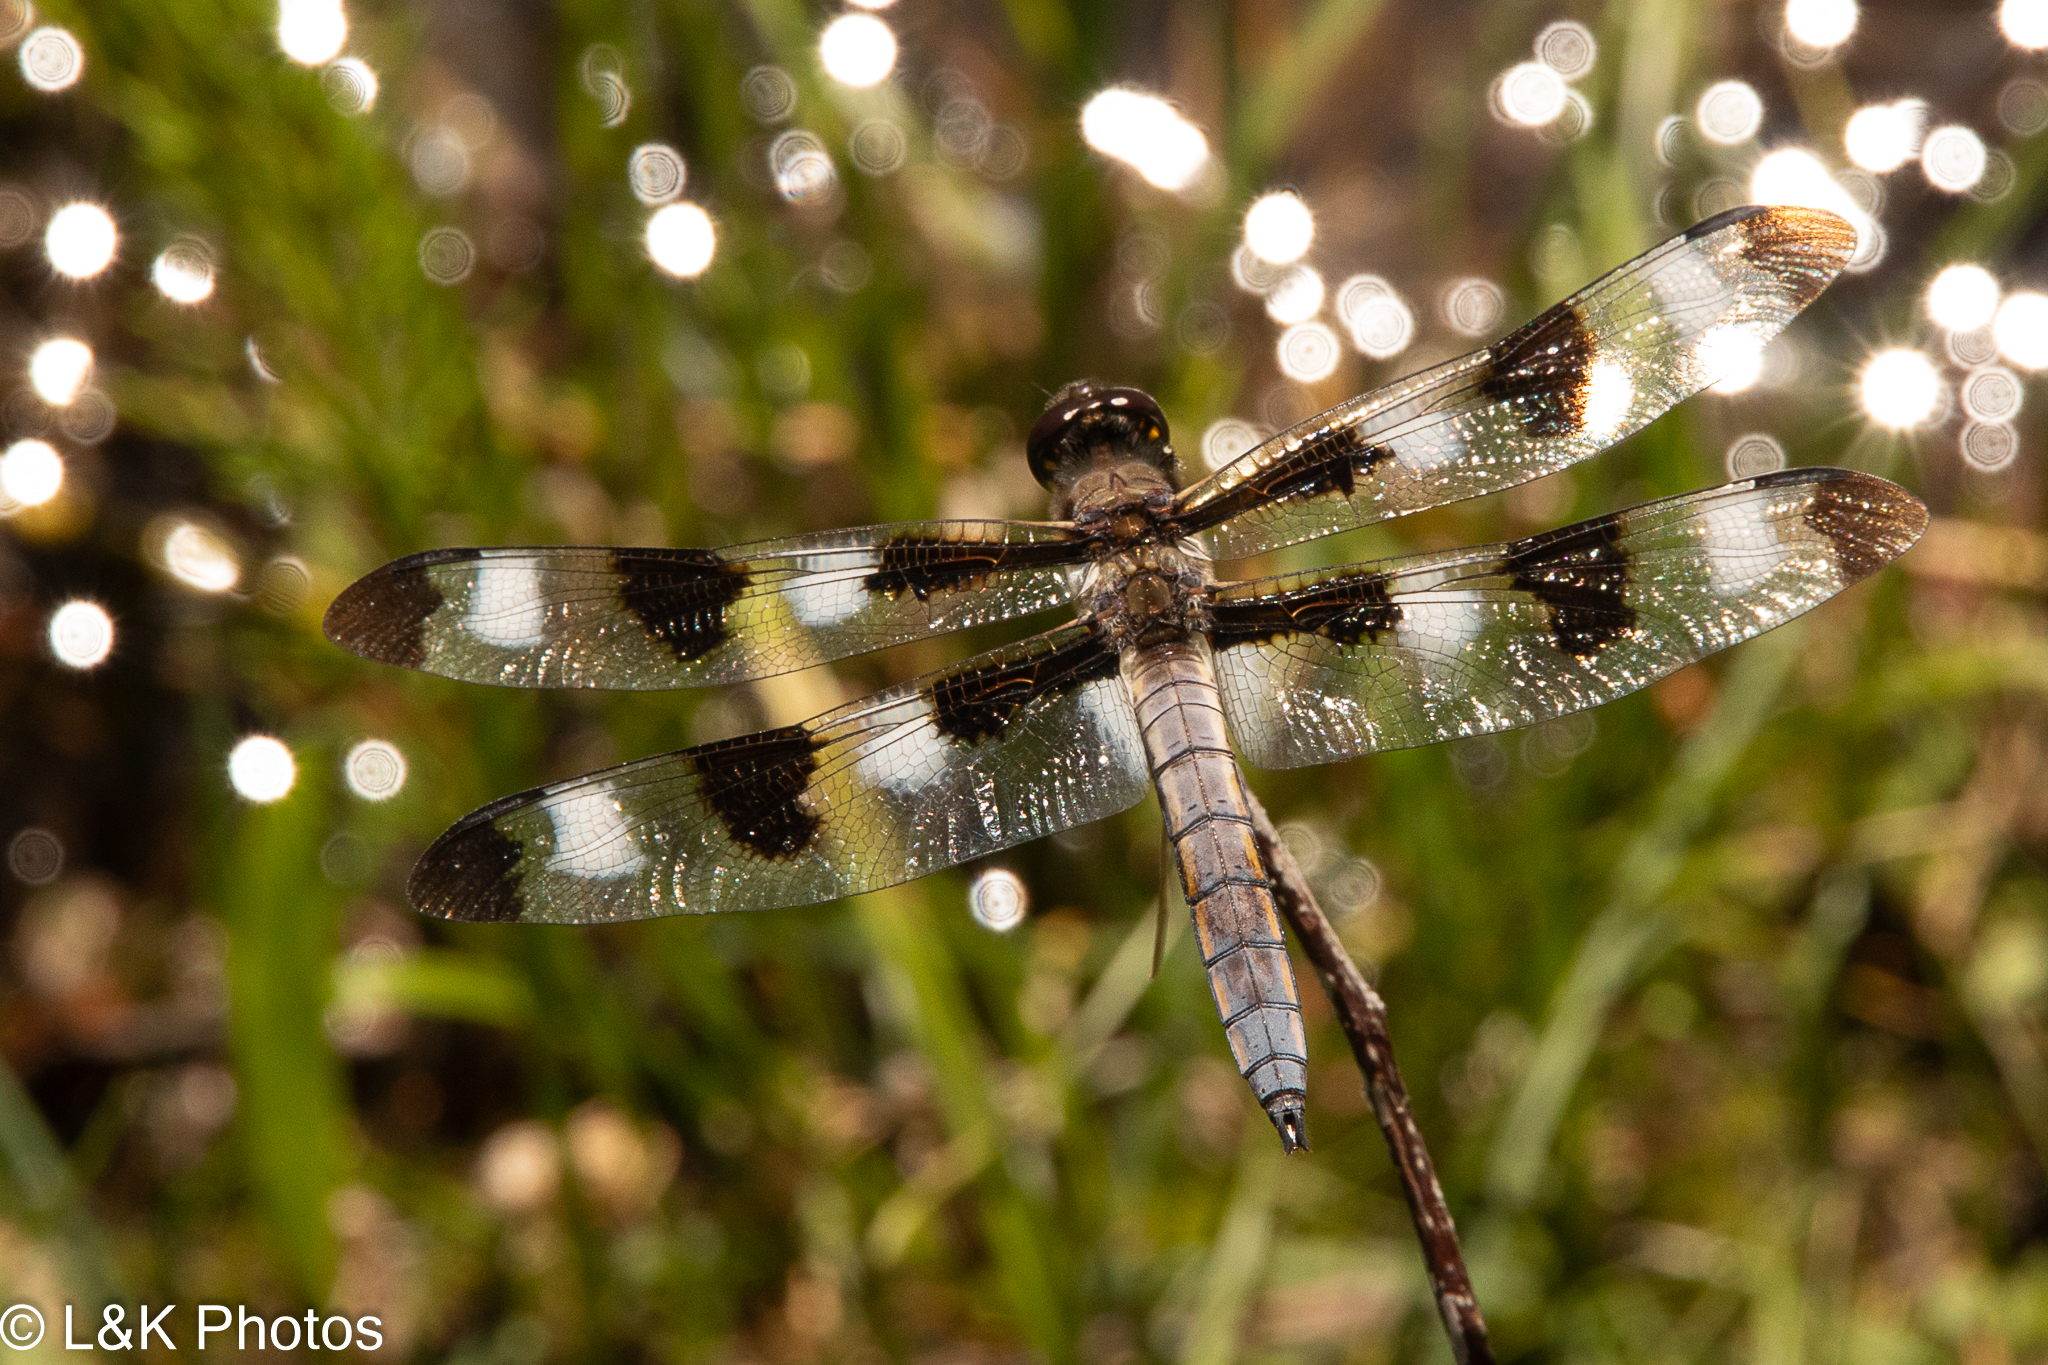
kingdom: Animalia
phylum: Arthropoda
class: Insecta
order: Odonata
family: Libellulidae
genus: Libellula
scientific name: Libellula pulchella
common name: Twelve-spotted skimmer
